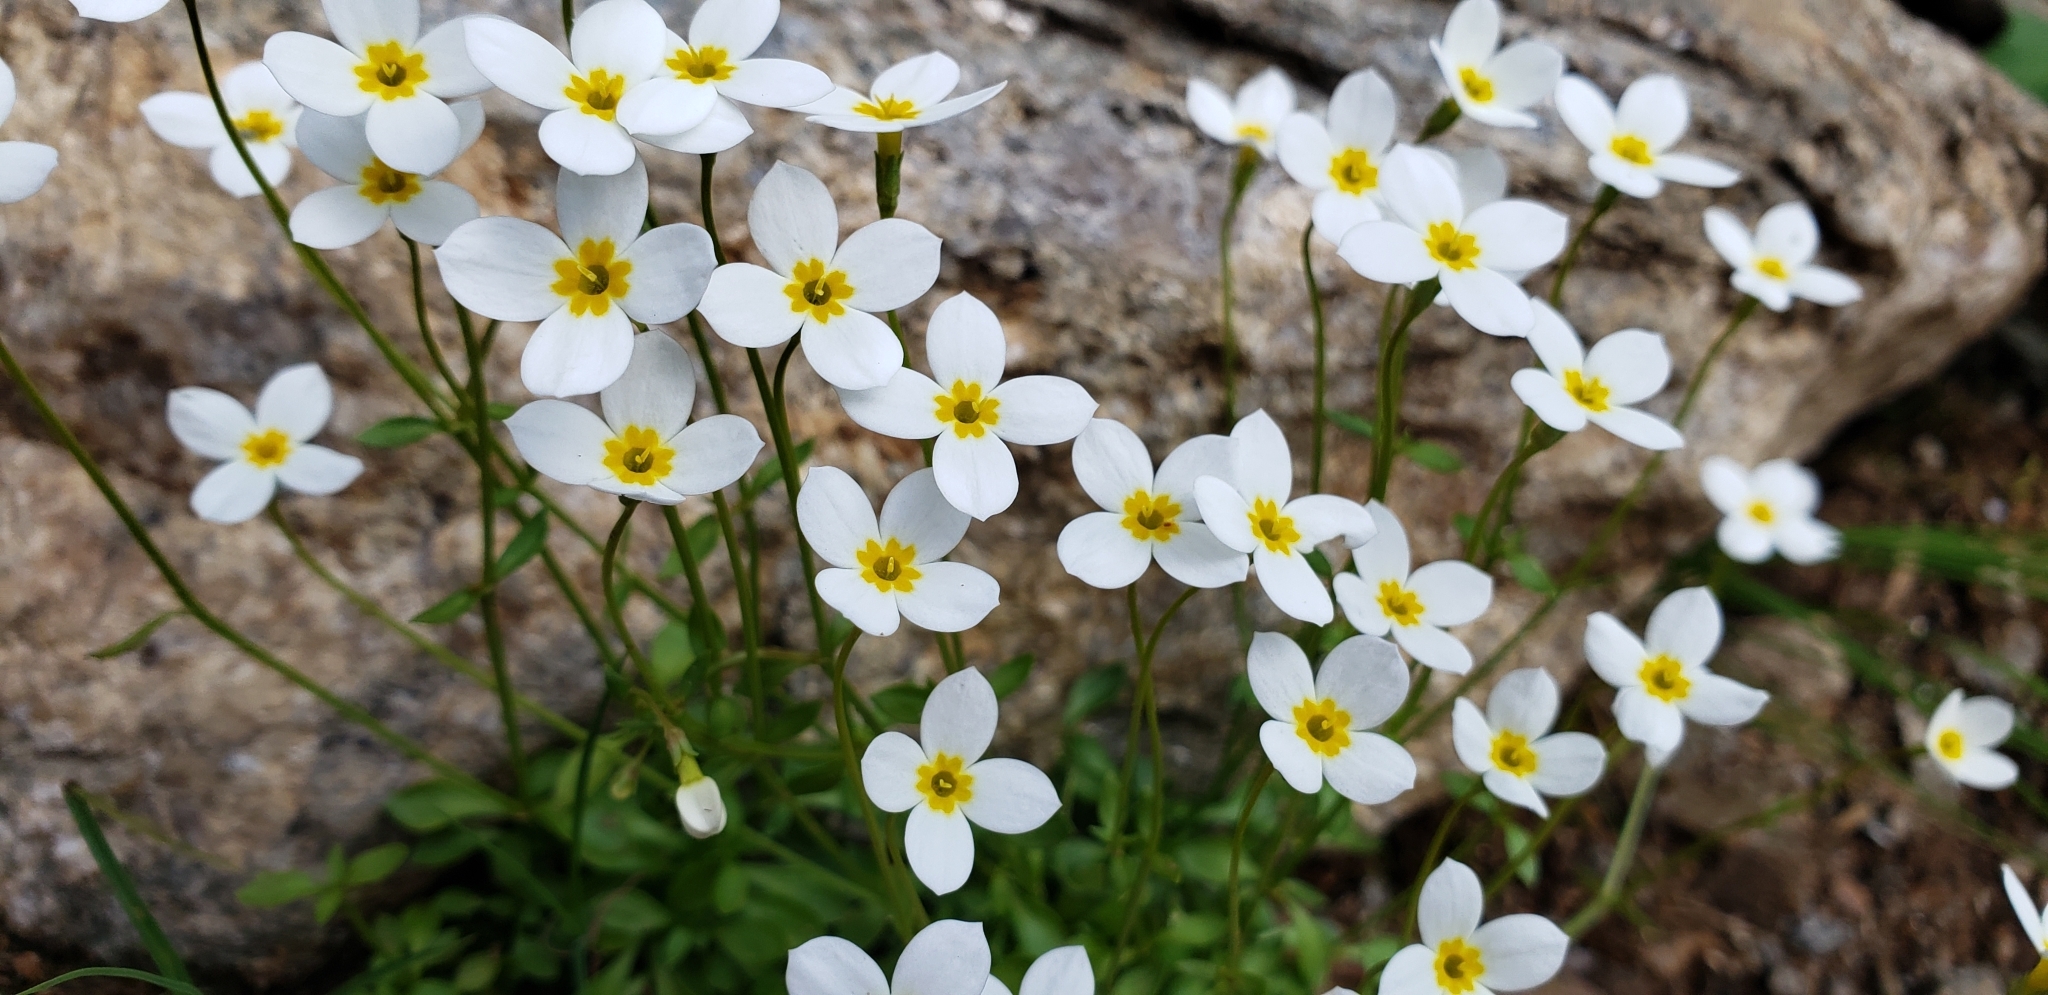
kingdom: Plantae
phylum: Tracheophyta
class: Magnoliopsida
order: Gentianales
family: Rubiaceae
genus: Houstonia
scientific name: Houstonia caerulea
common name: Bluets
